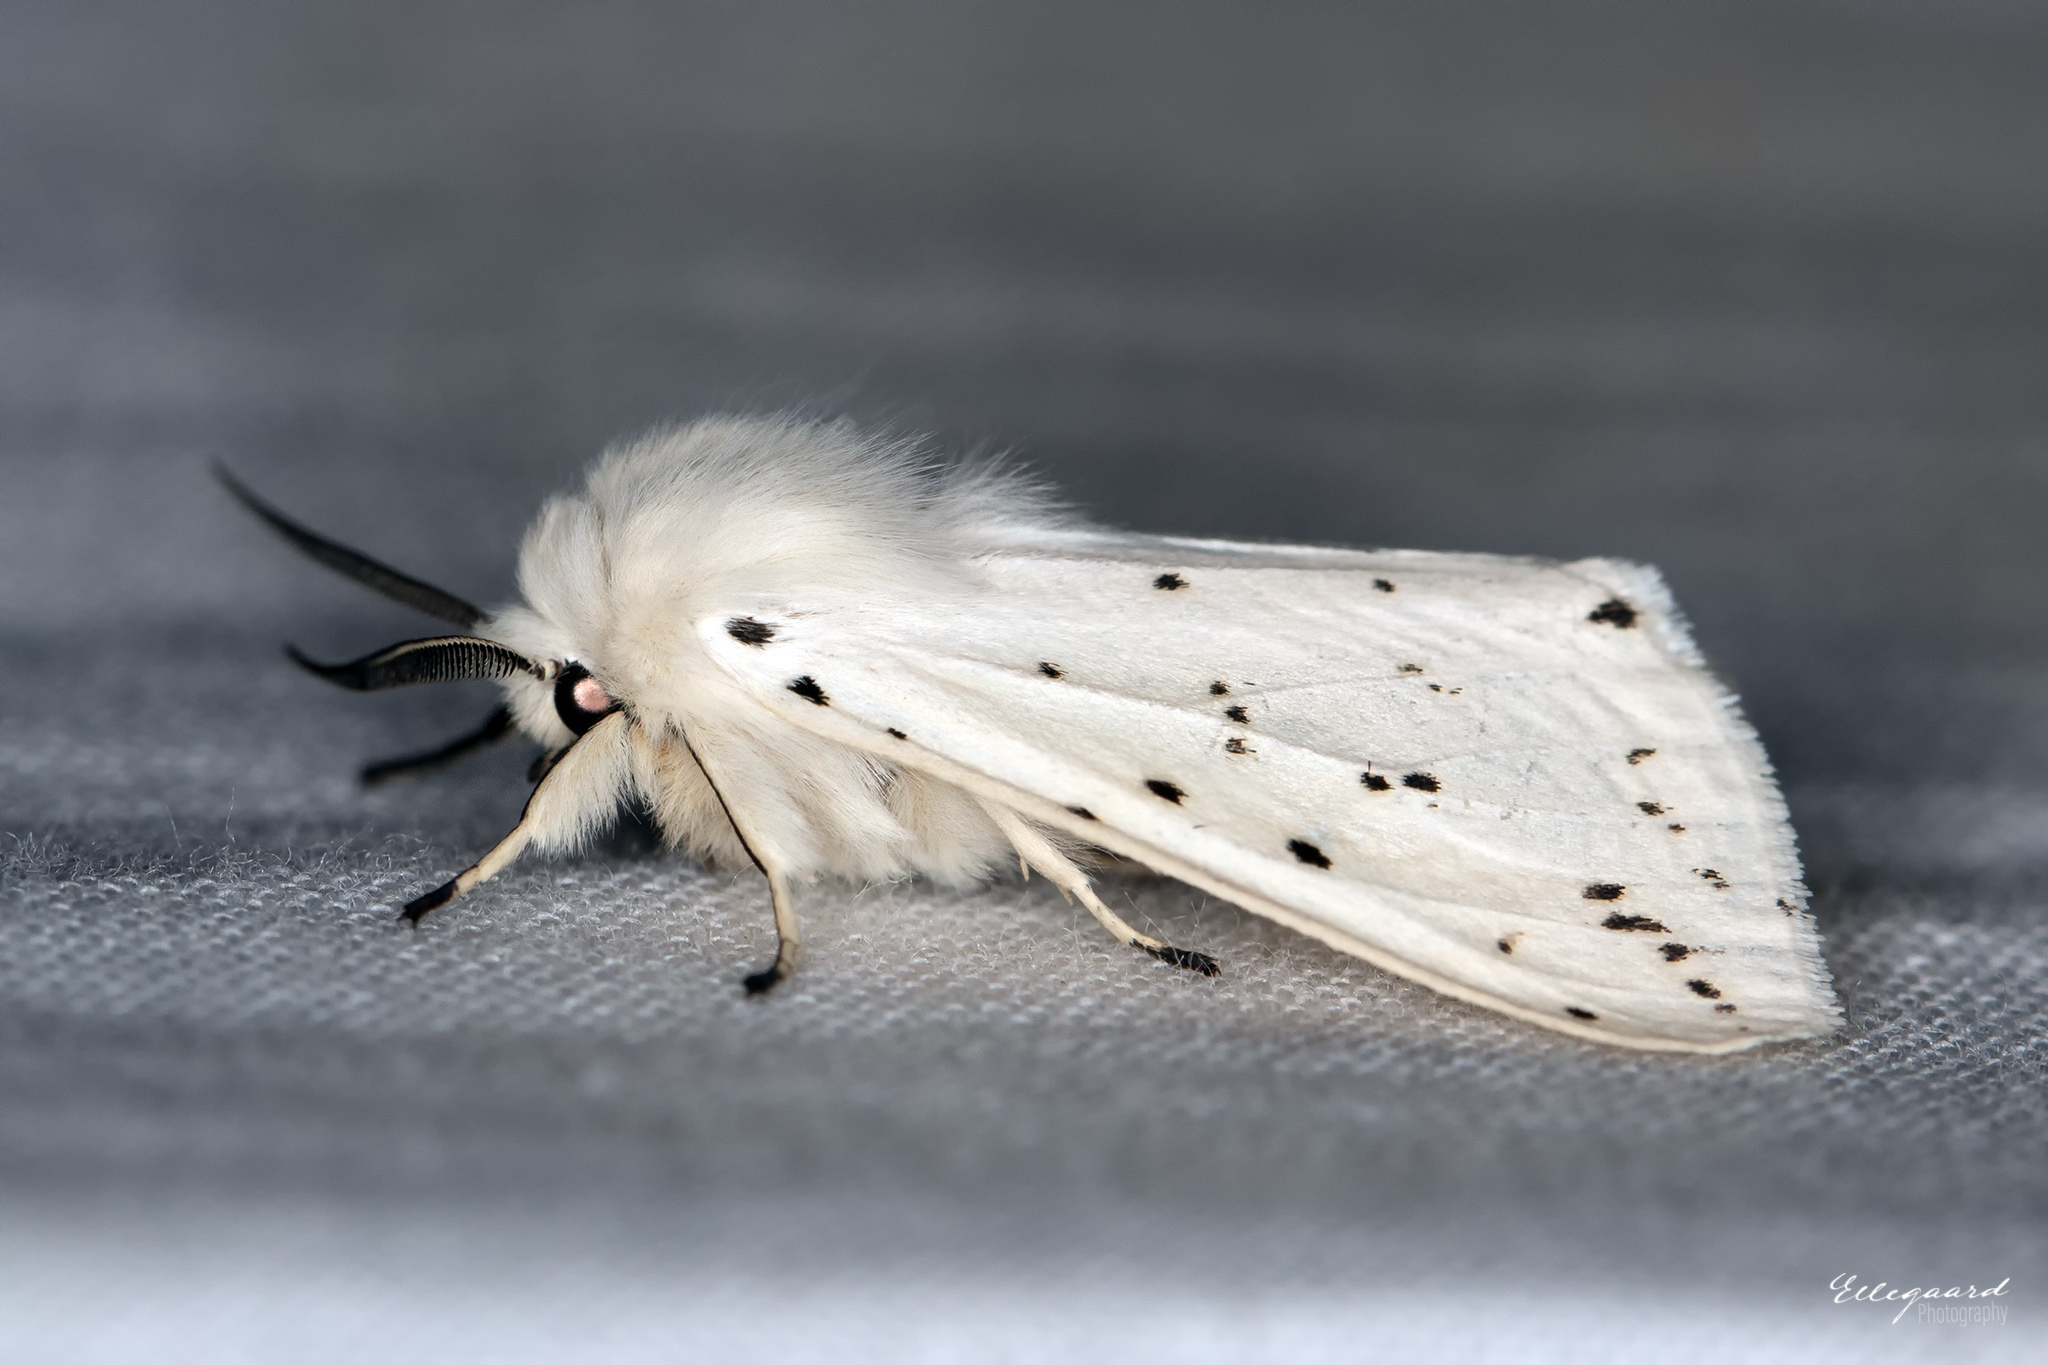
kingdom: Animalia
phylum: Arthropoda
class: Insecta
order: Lepidoptera
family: Erebidae
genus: Spilosoma
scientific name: Spilosoma lubricipeda
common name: White ermine
